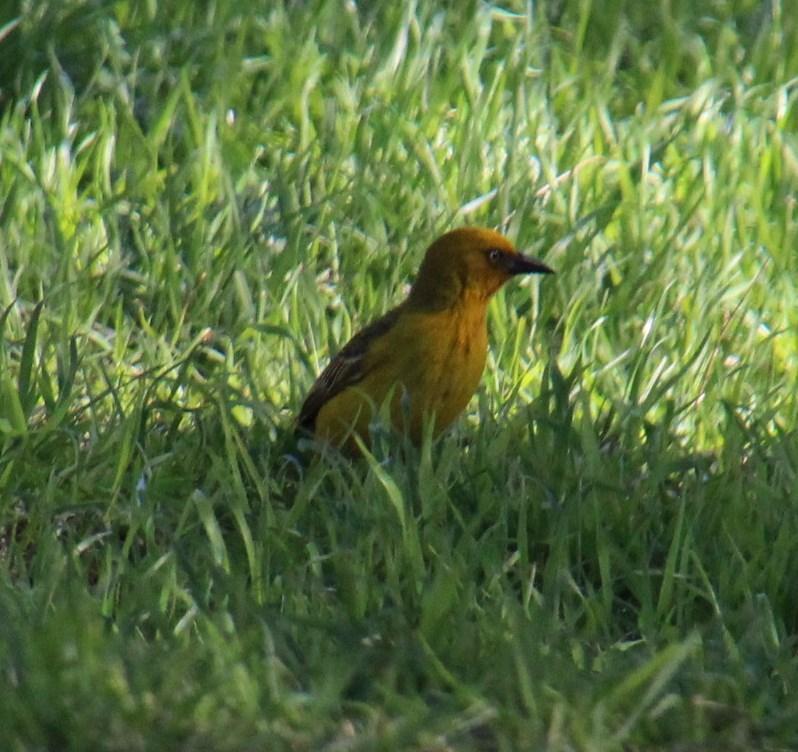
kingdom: Animalia
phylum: Chordata
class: Aves
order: Passeriformes
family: Ploceidae
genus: Ploceus
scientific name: Ploceus capensis
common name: Cape weaver
